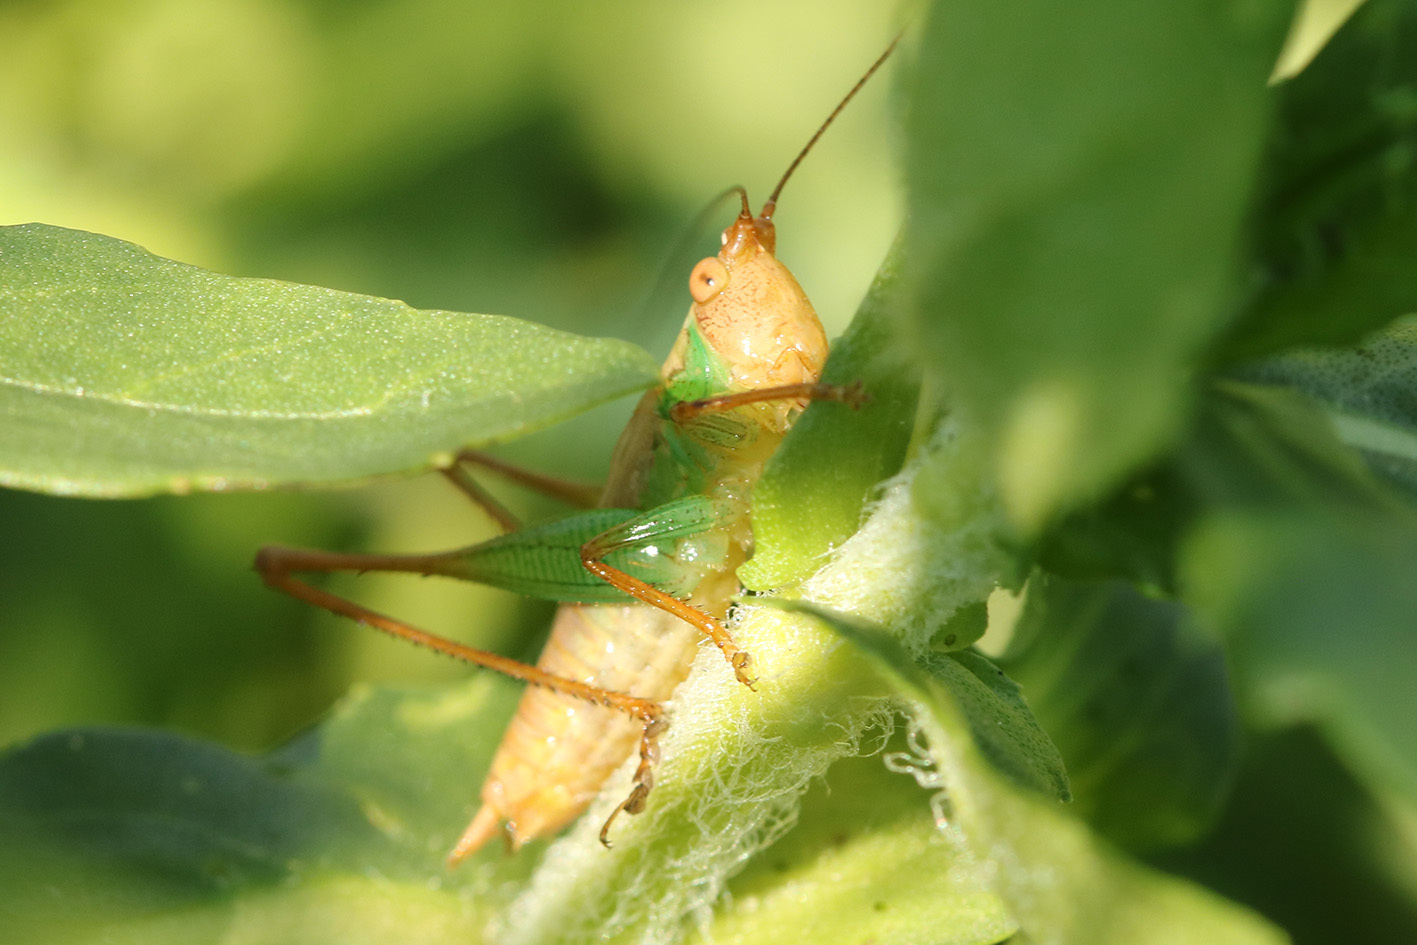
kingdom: Animalia
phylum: Arthropoda
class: Insecta
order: Orthoptera
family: Tettigoniidae
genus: Conocephalus
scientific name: Conocephalus cinnamonifrons
